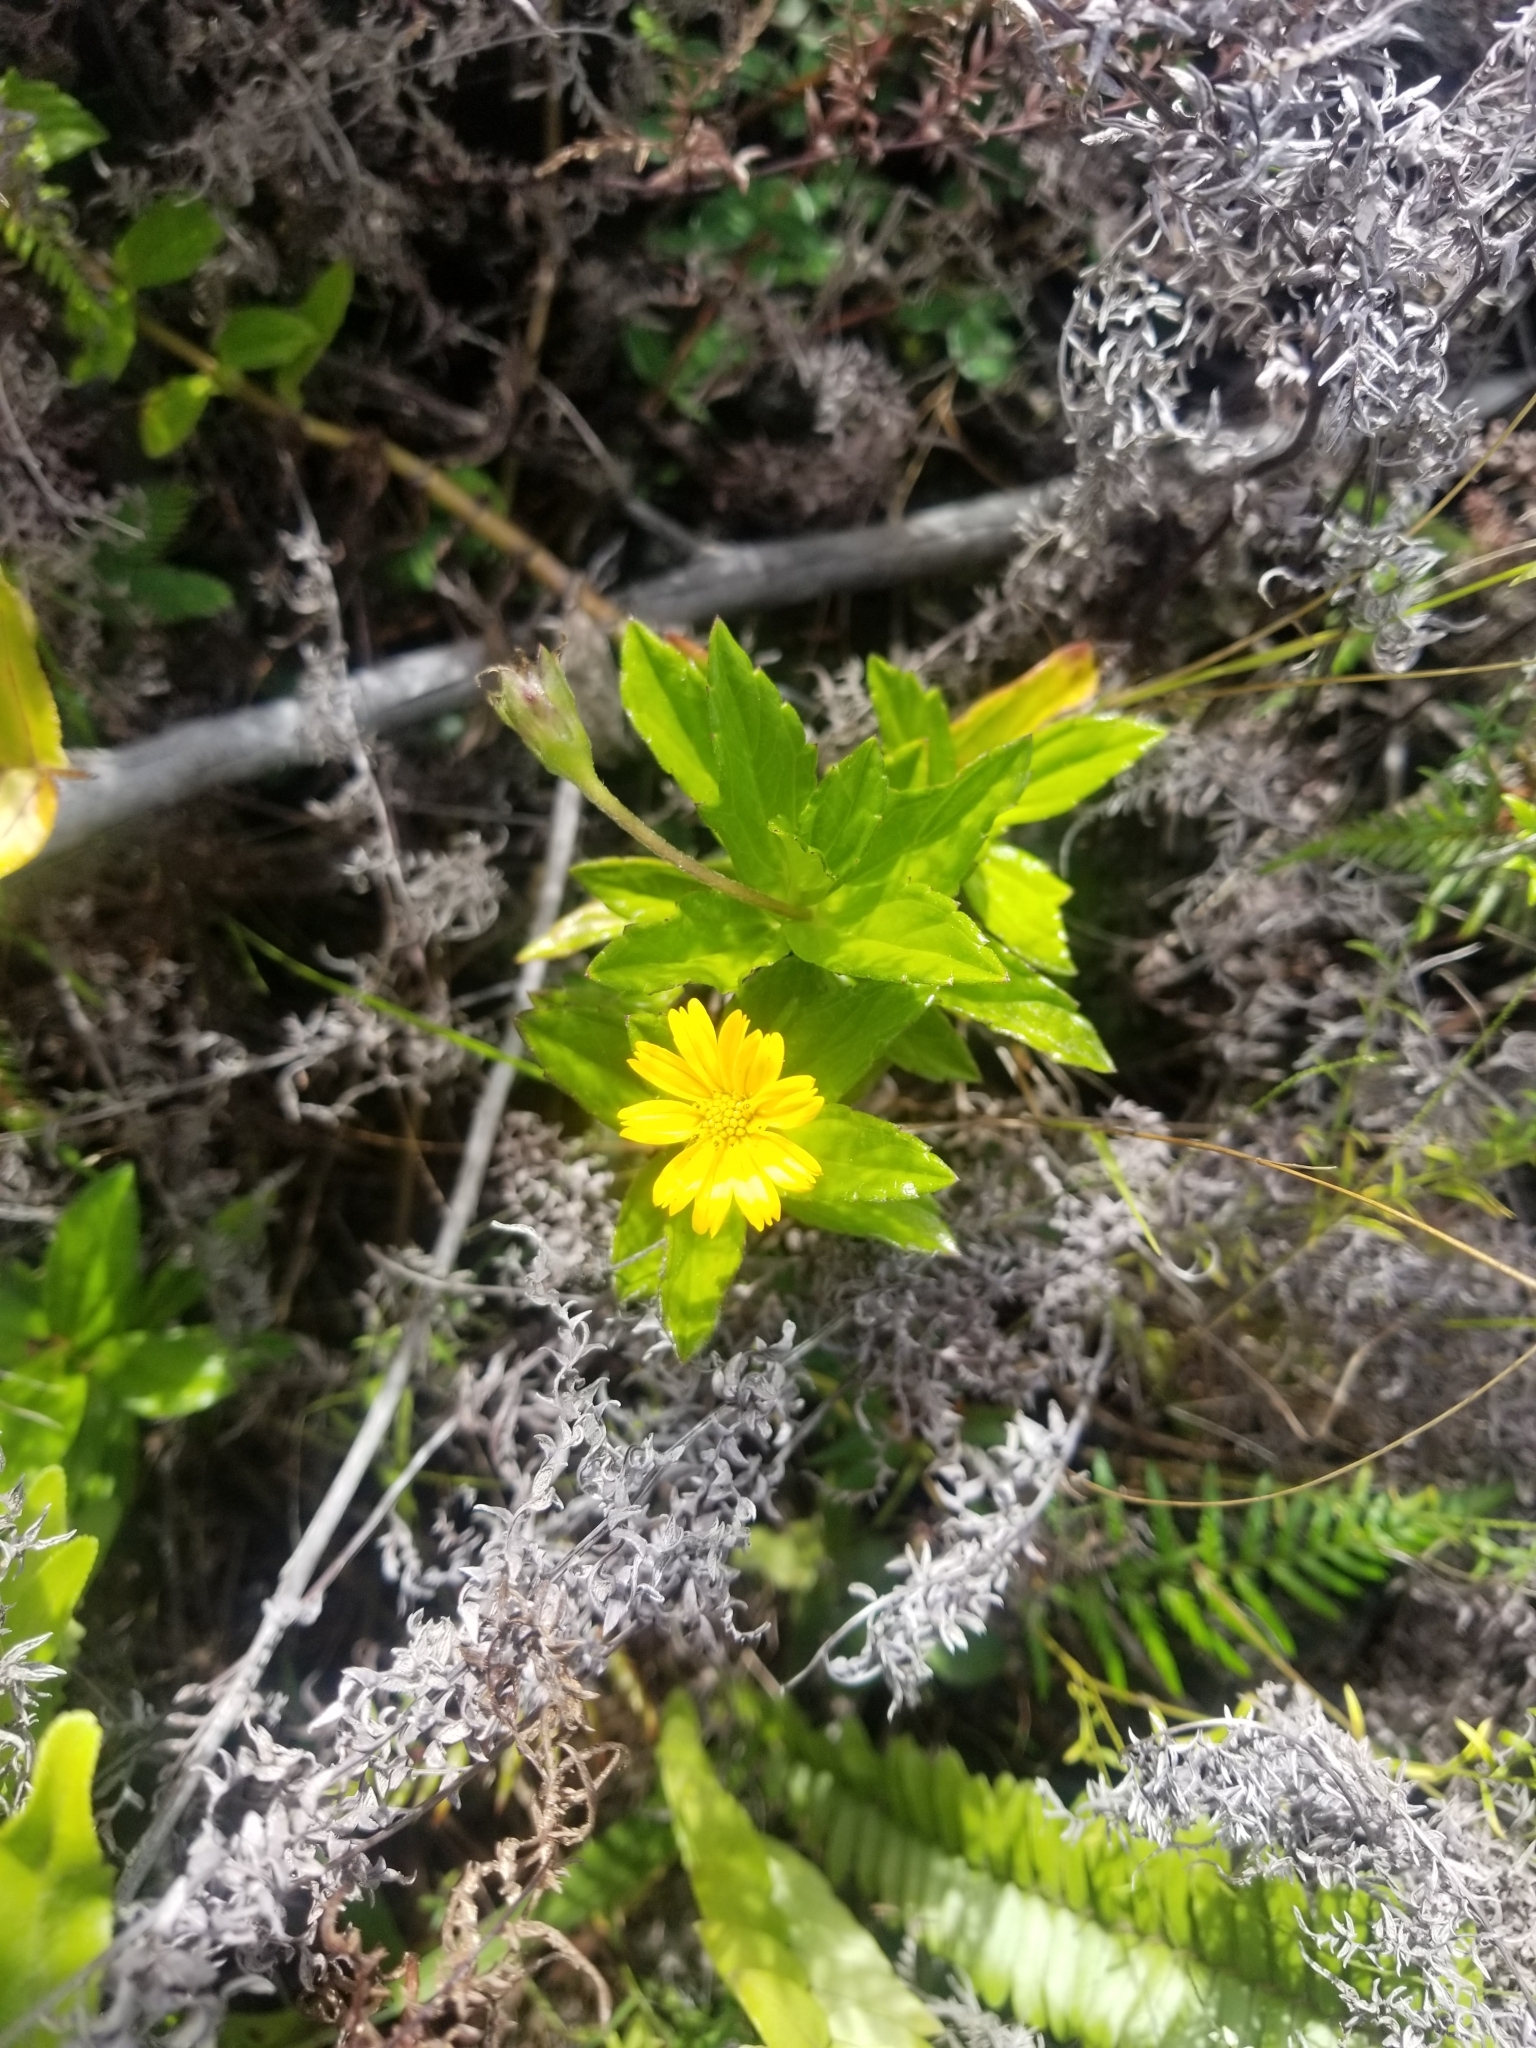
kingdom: Plantae
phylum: Tracheophyta
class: Magnoliopsida
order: Asterales
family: Asteraceae
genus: Sphagneticola
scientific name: Sphagneticola trilobata
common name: Bay biscayne creeping-oxeye
